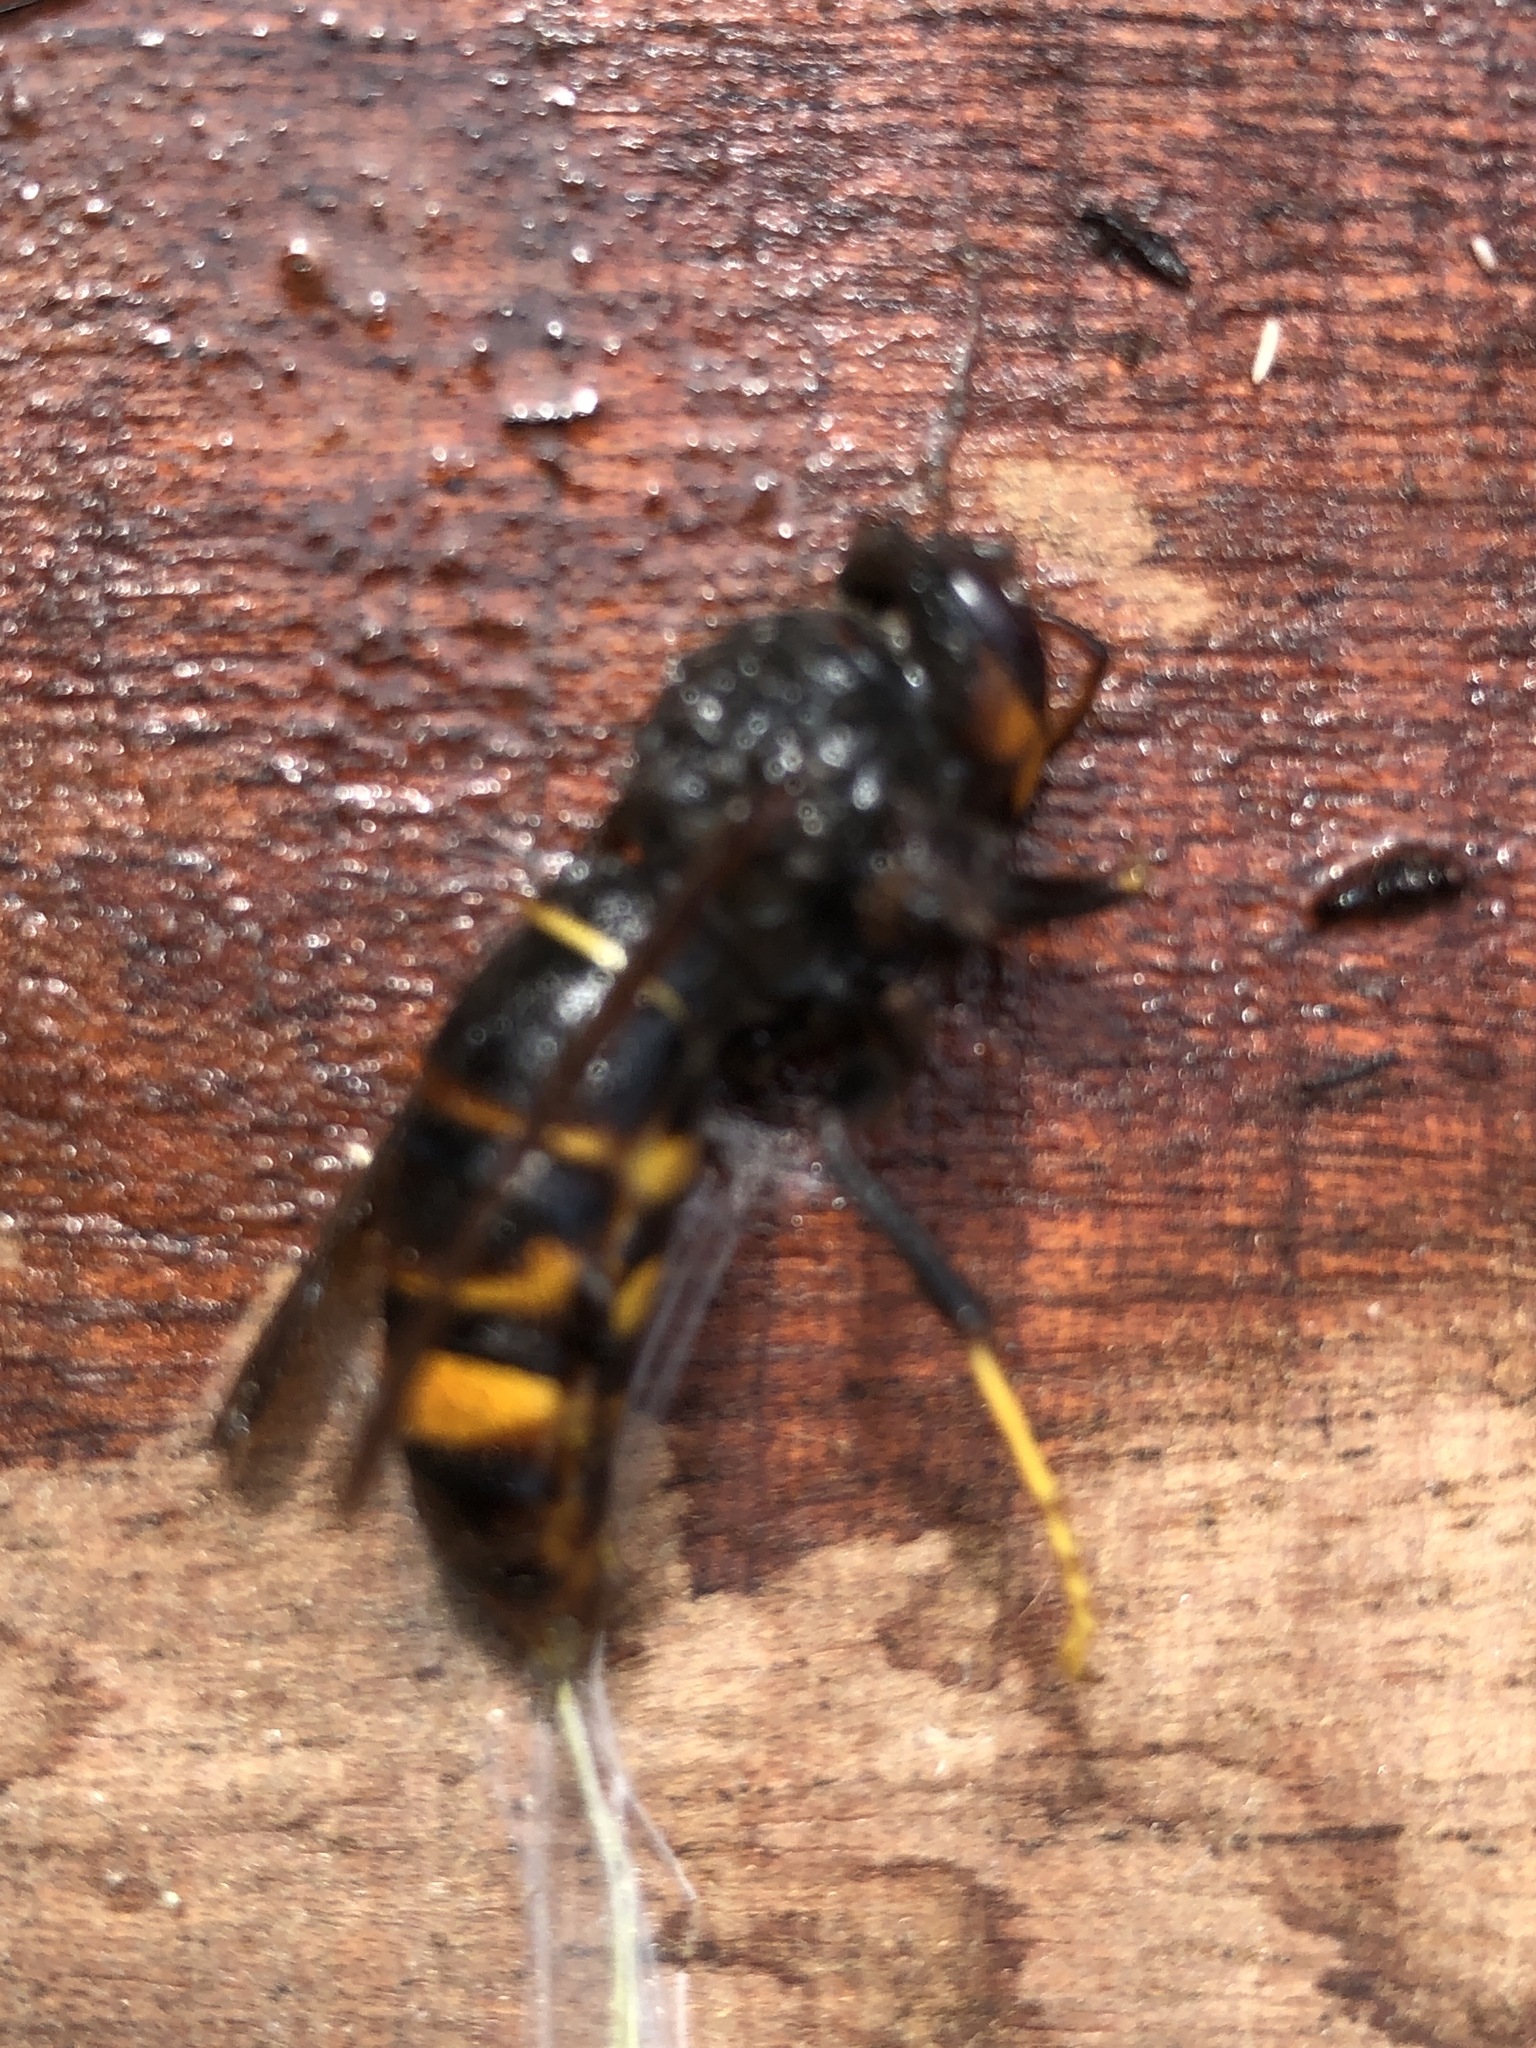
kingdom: Animalia
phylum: Arthropoda
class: Insecta
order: Hymenoptera
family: Vespidae
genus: Vespa
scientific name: Vespa velutina
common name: Asian hornet
